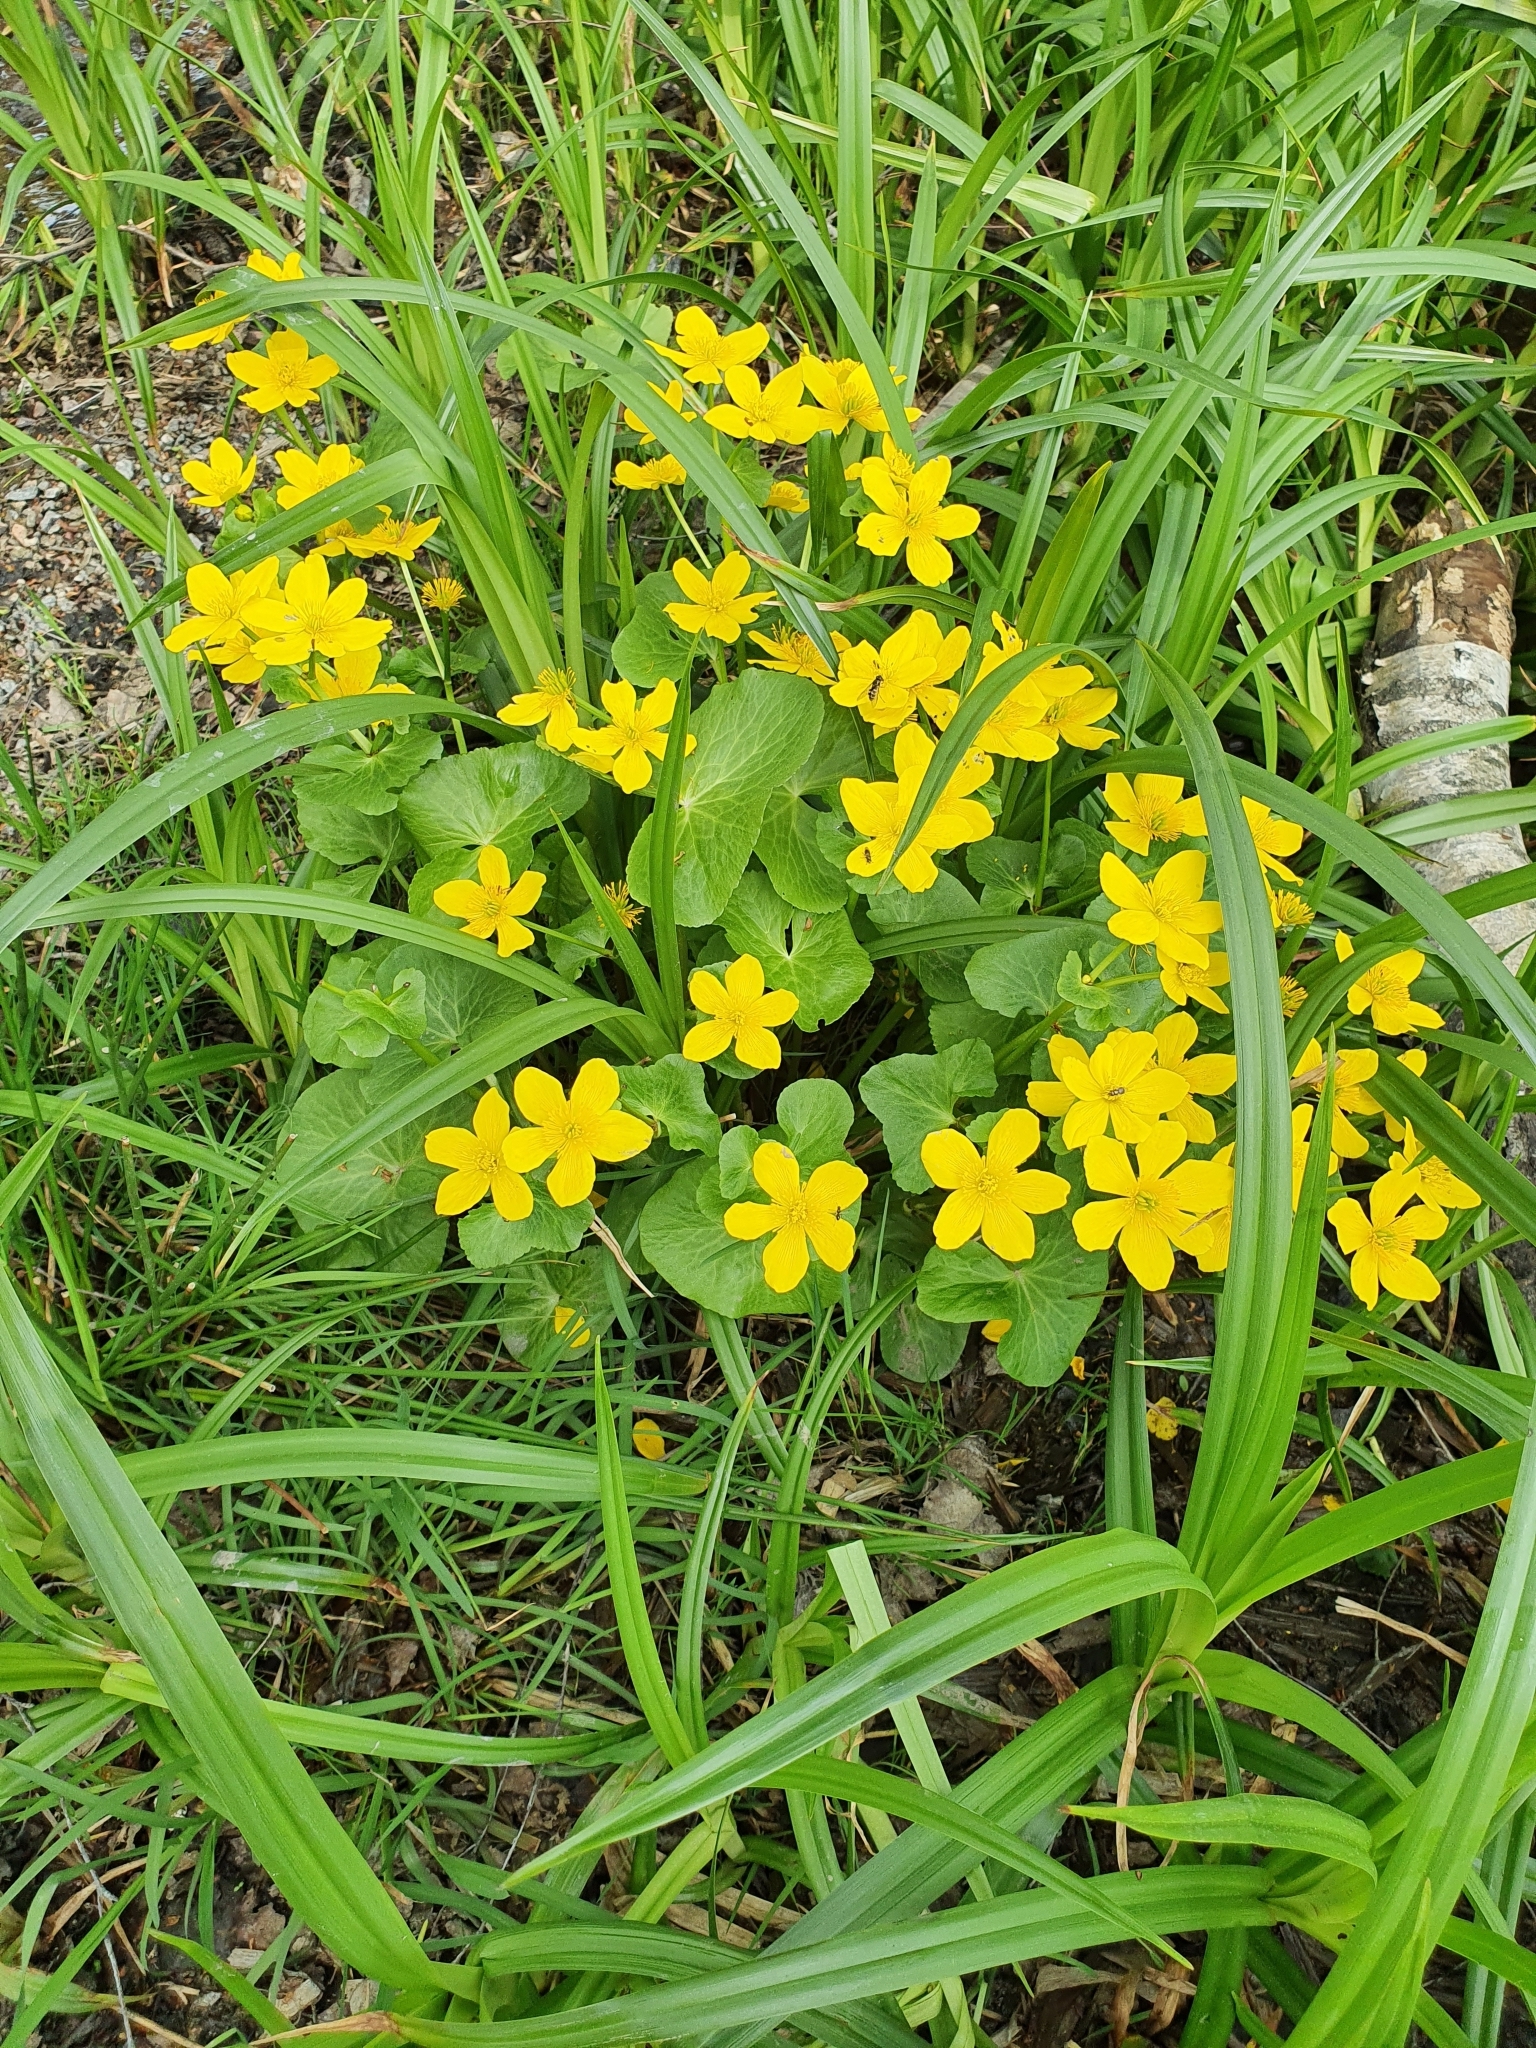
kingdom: Plantae
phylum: Tracheophyta
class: Magnoliopsida
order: Ranunculales
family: Ranunculaceae
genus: Caltha
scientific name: Caltha palustris
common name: Marsh marigold
